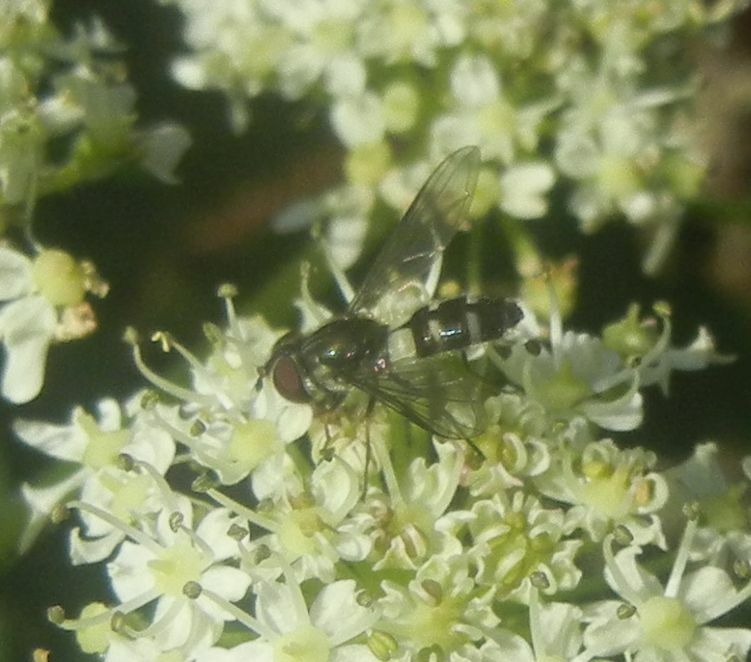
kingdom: Animalia
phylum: Arthropoda
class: Insecta
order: Diptera
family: Syrphidae
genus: Leucozona
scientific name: Leucozona laternaria
